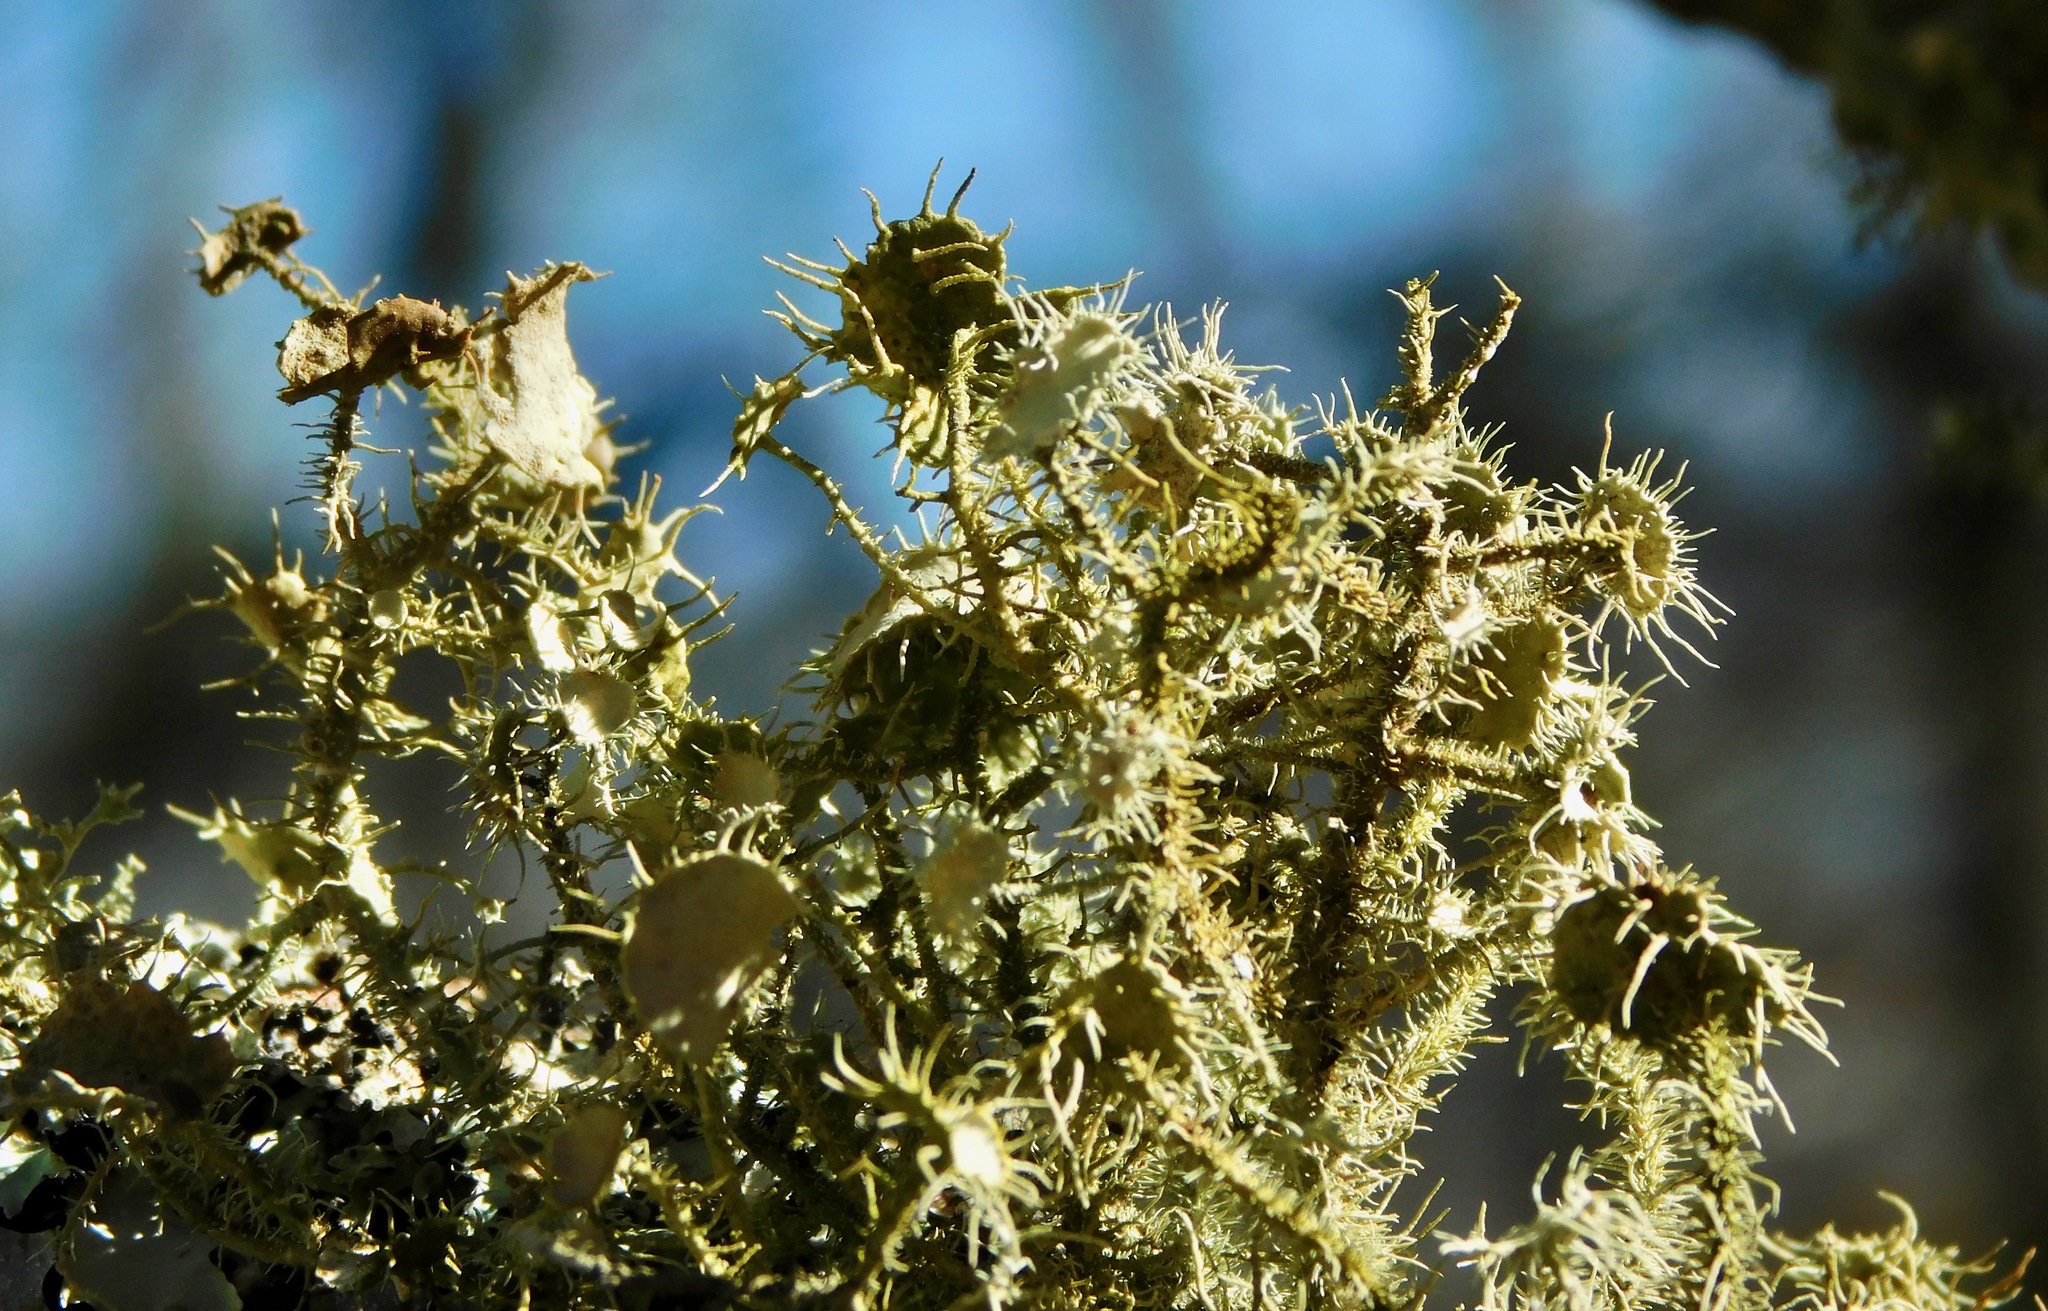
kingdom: Fungi
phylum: Ascomycota
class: Lecanoromycetes
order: Lecanorales
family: Parmeliaceae
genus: Usnea
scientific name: Usnea strigosa
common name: Bushy beard lichen
